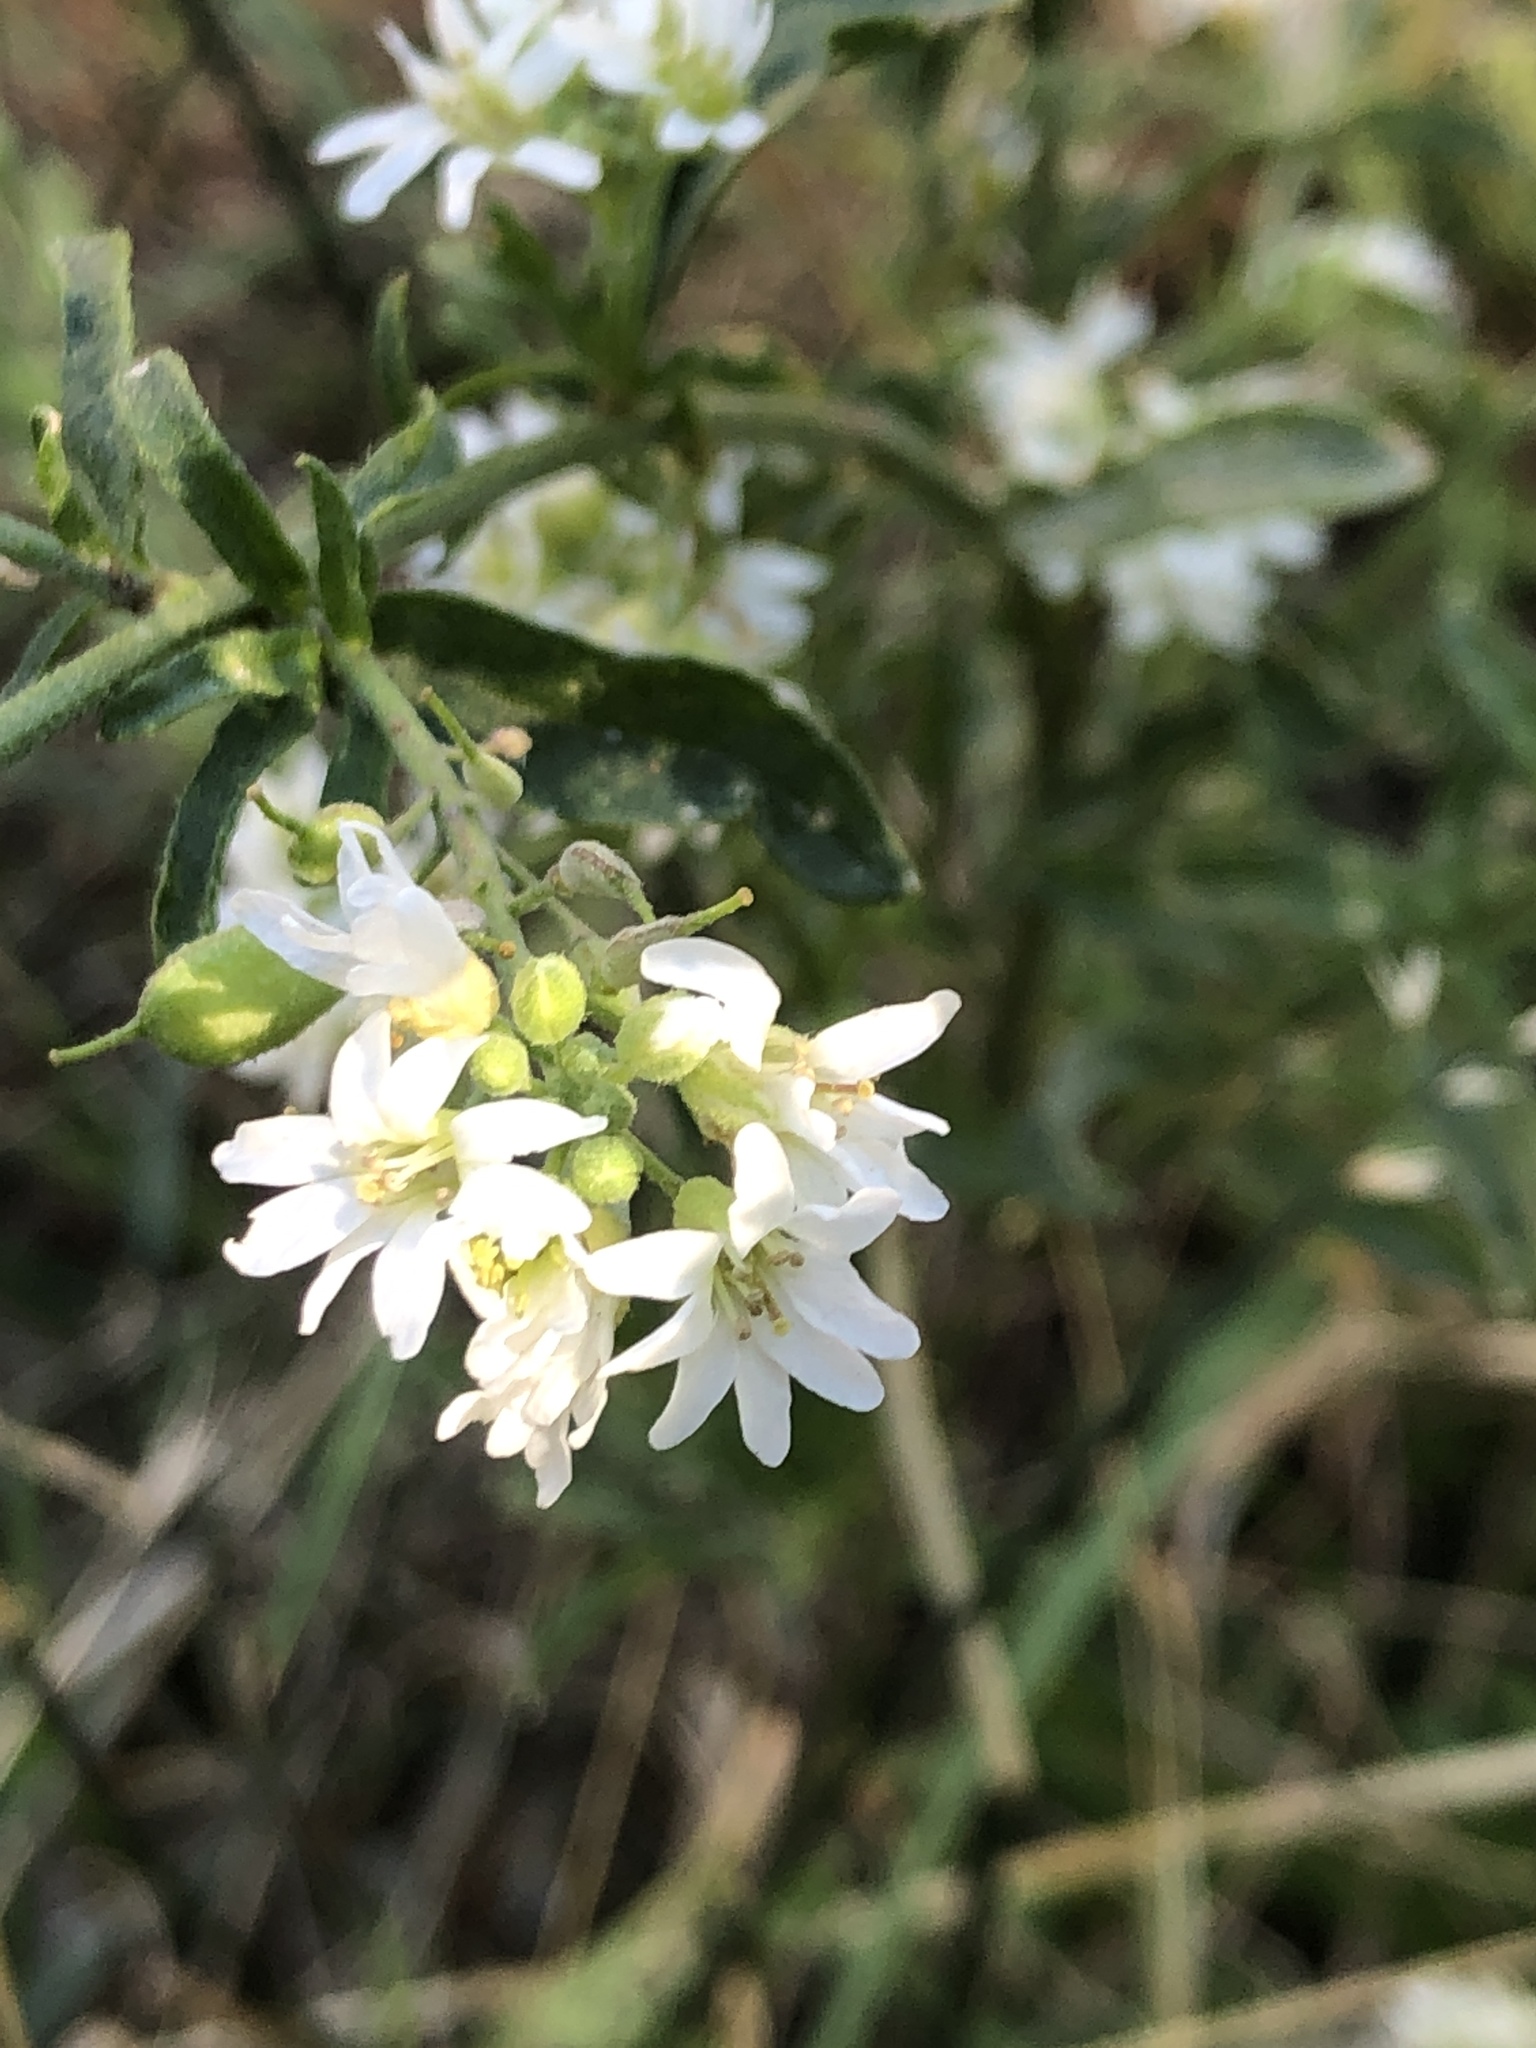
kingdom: Plantae
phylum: Tracheophyta
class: Magnoliopsida
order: Brassicales
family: Brassicaceae
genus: Berteroa
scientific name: Berteroa incana
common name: Hoary alison
